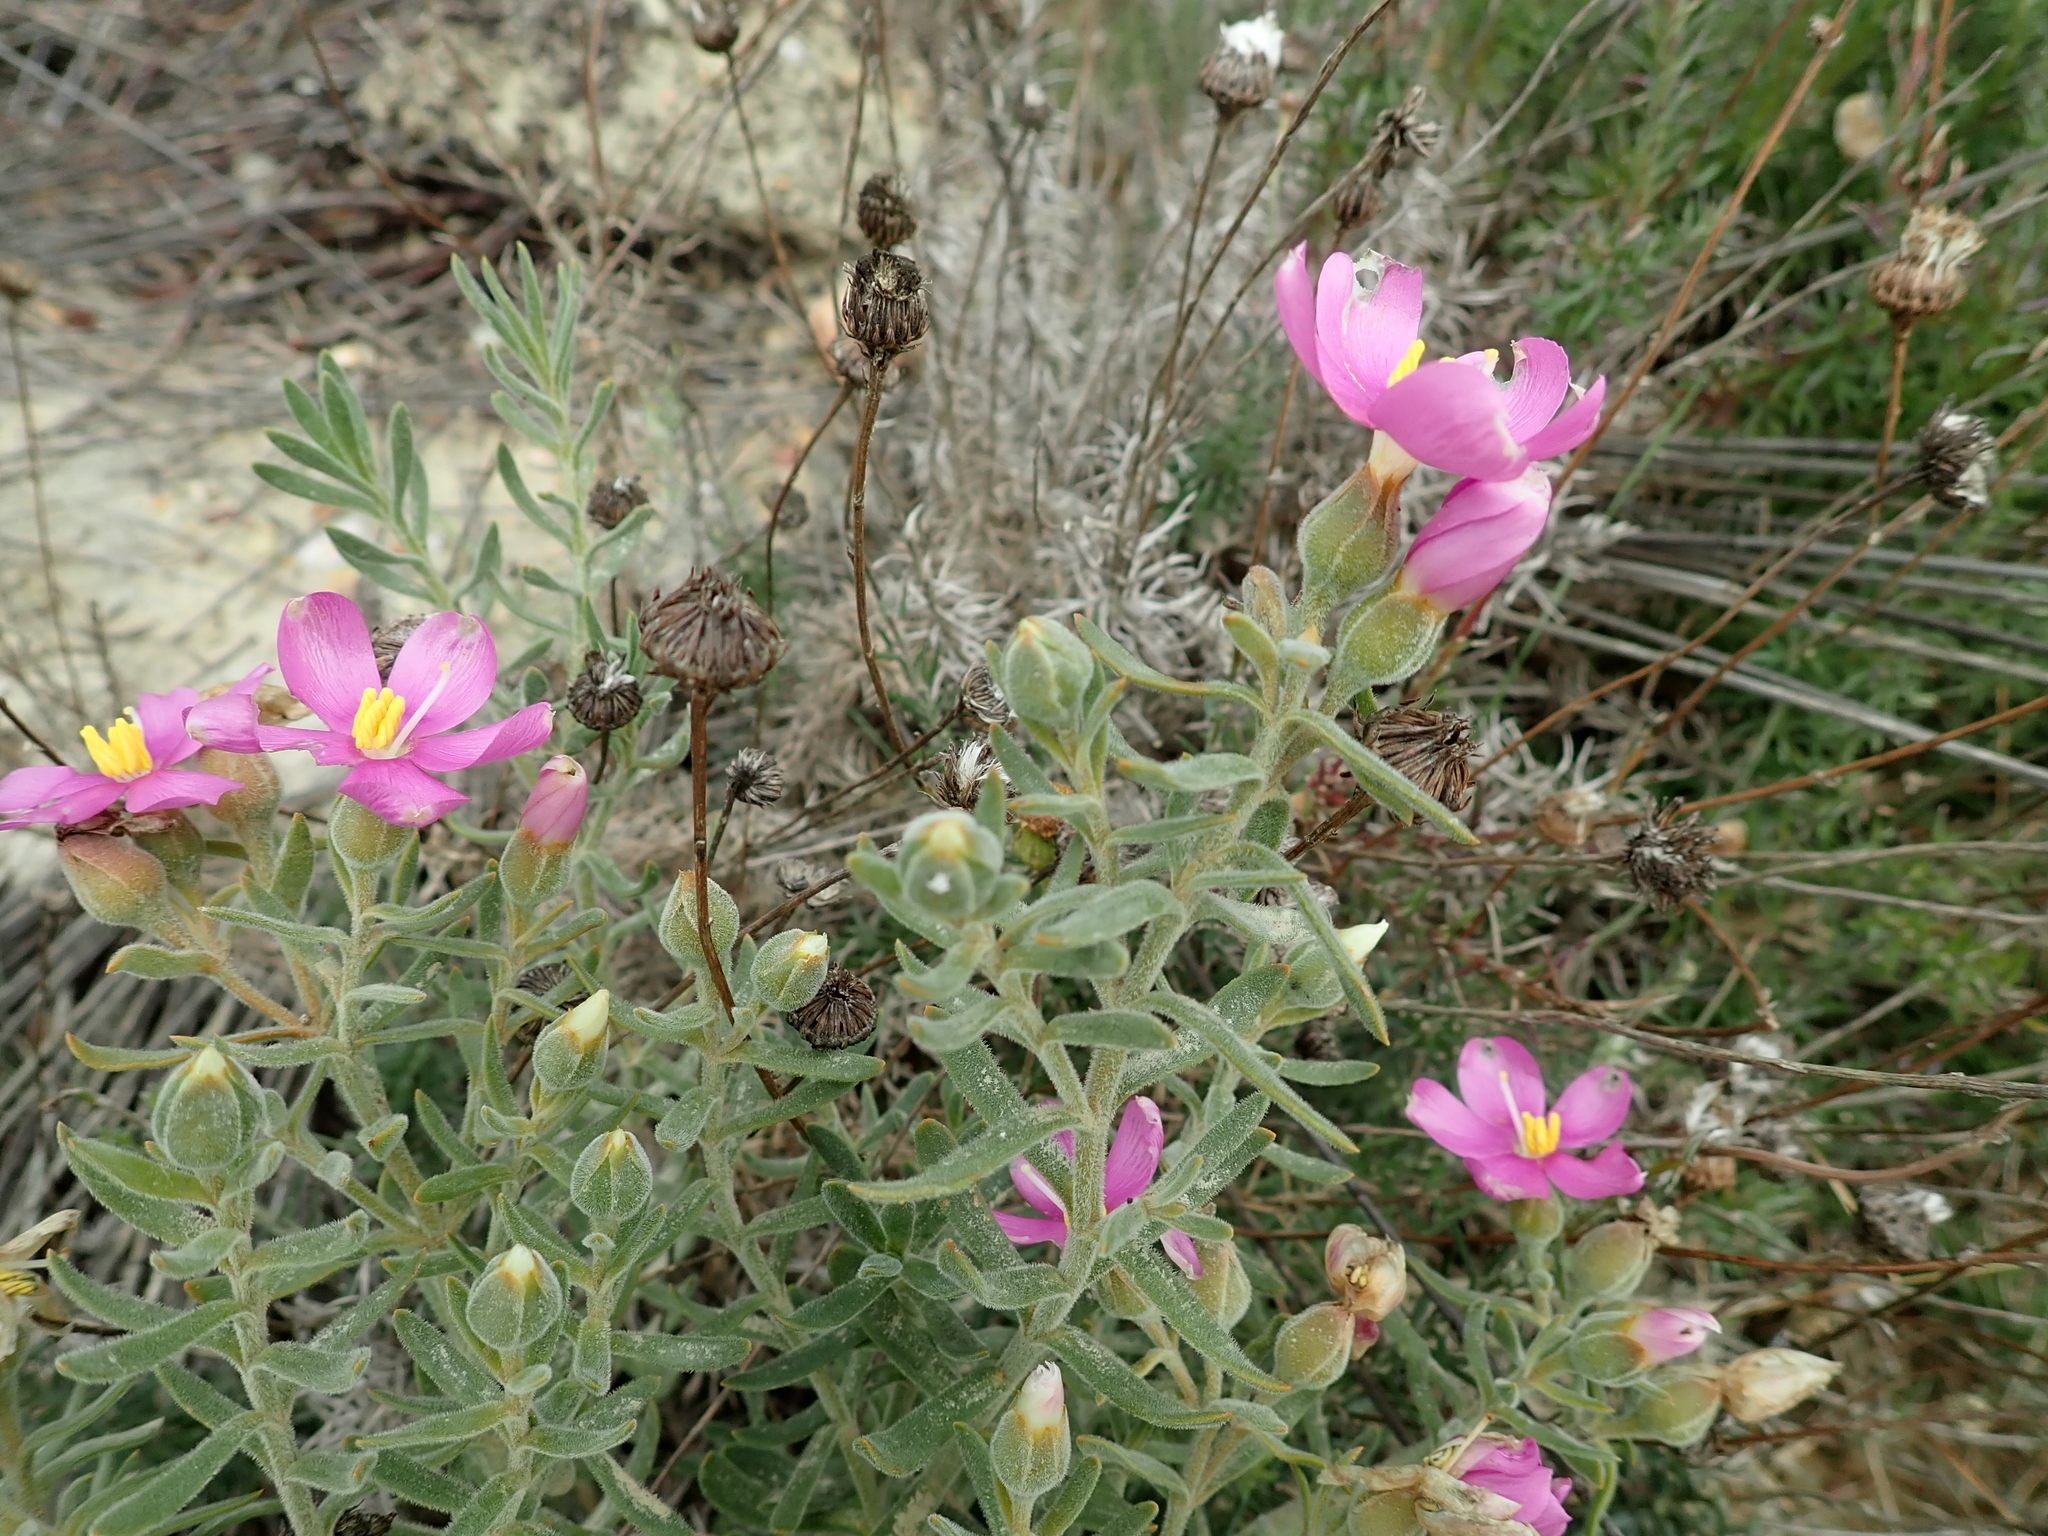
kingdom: Plantae
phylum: Tracheophyta
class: Magnoliopsida
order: Gentianales
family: Gentianaceae
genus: Orphium
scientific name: Orphium frutescens
